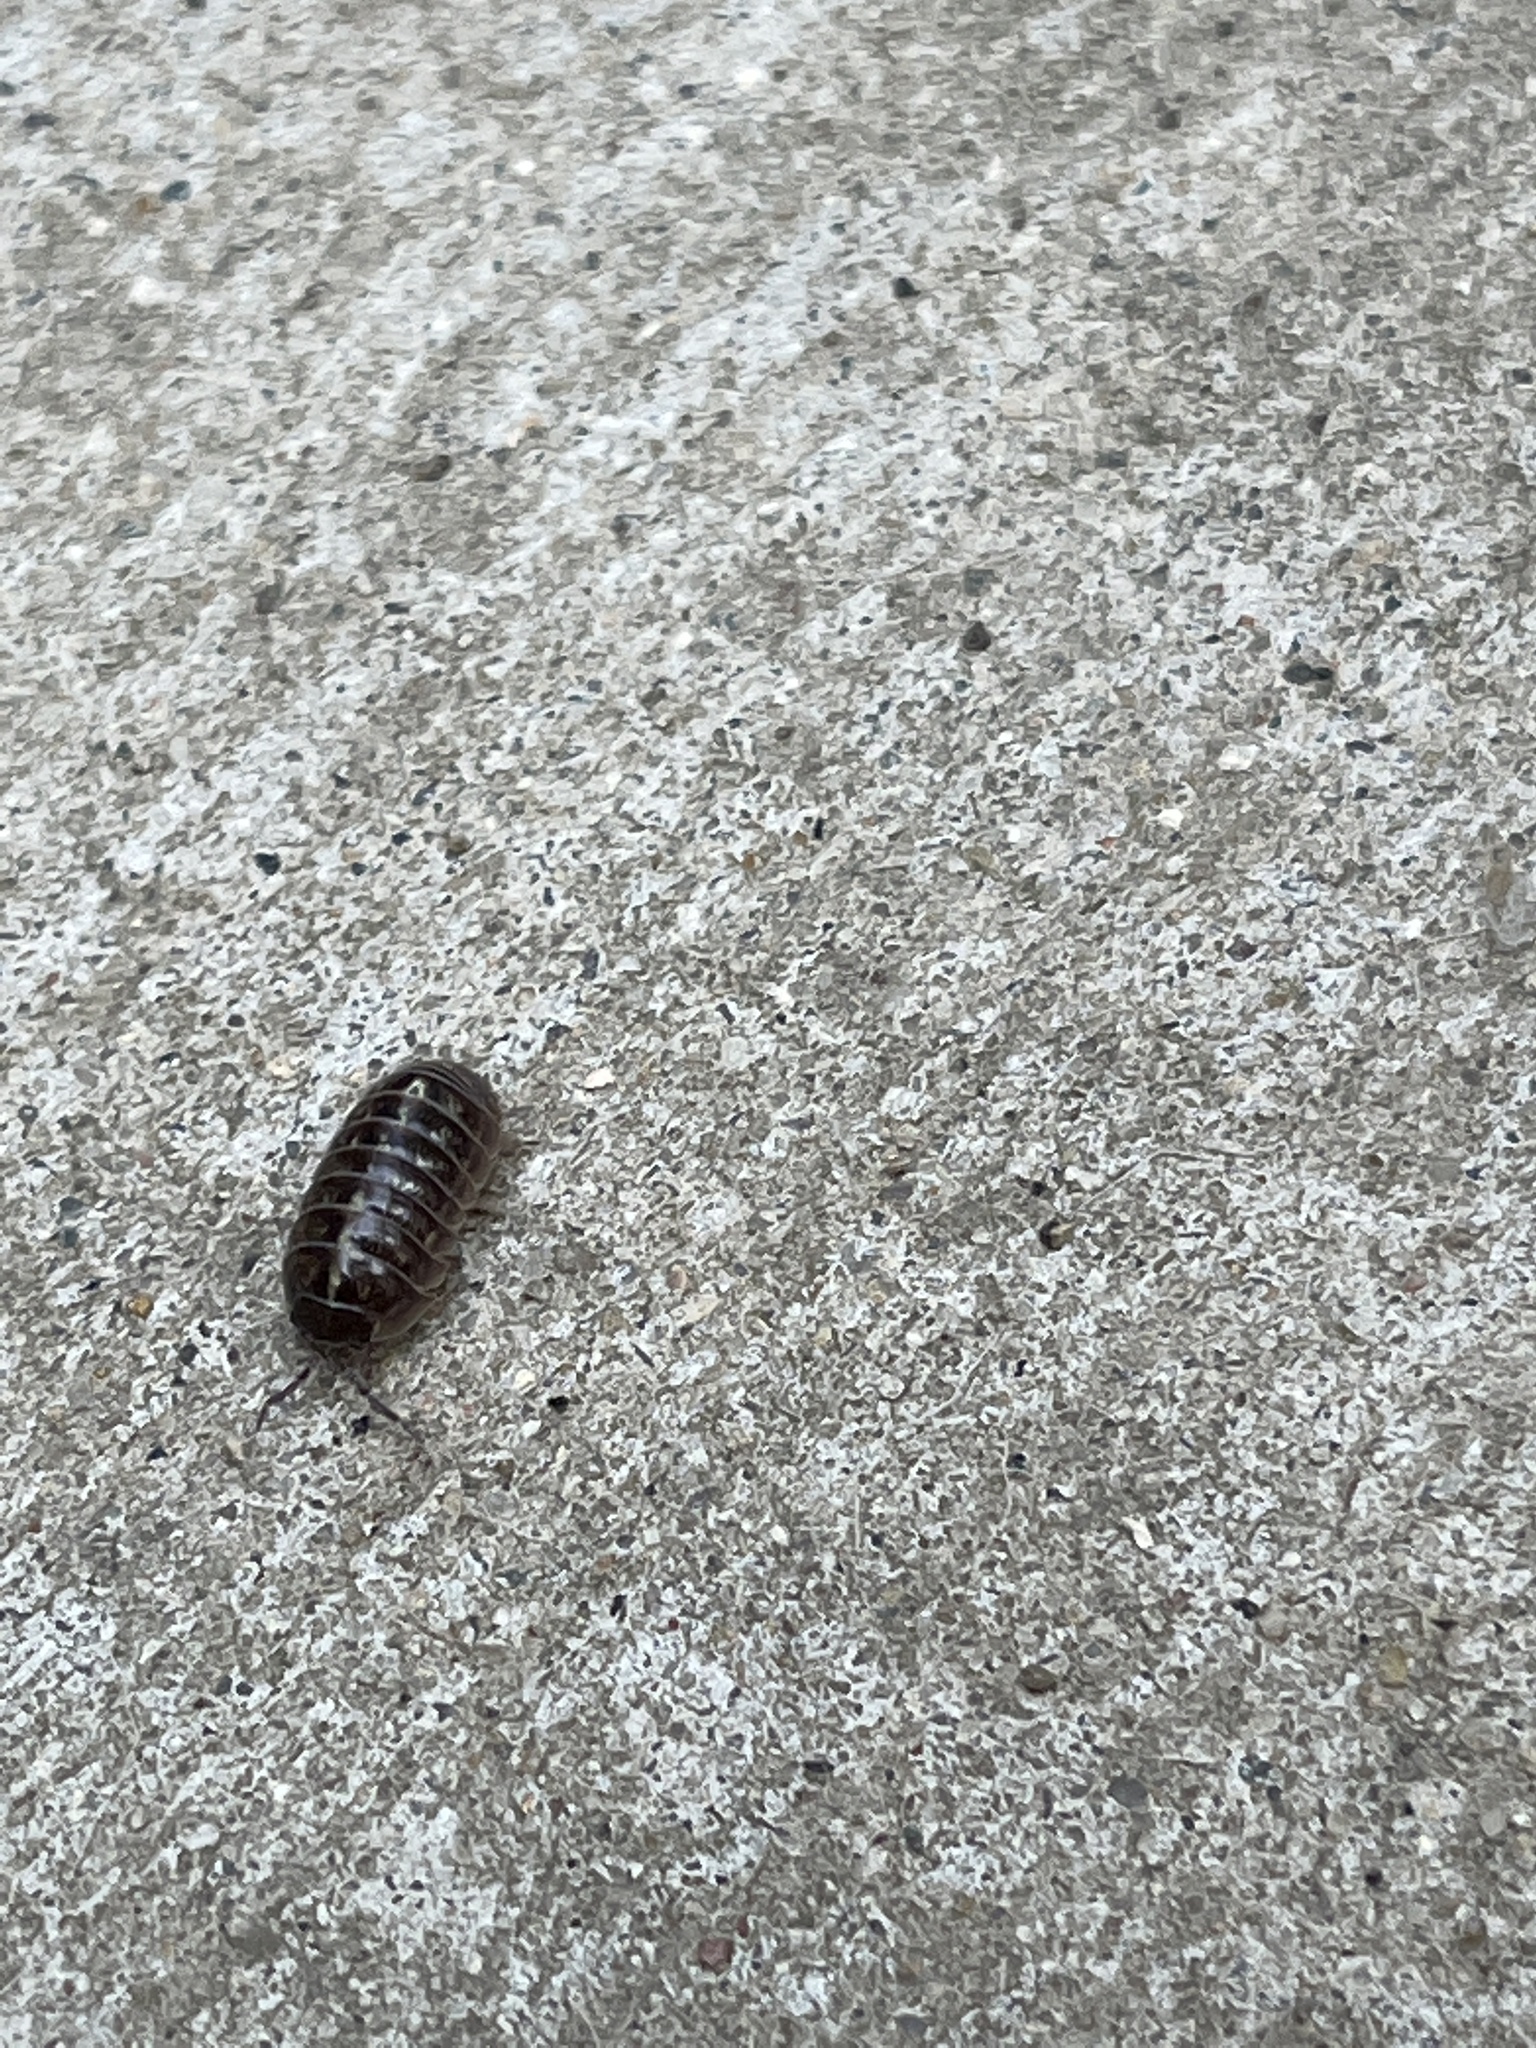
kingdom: Animalia
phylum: Arthropoda
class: Malacostraca
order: Isopoda
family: Armadillidiidae
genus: Armadillidium
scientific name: Armadillidium vulgare
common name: Common pill woodlouse
